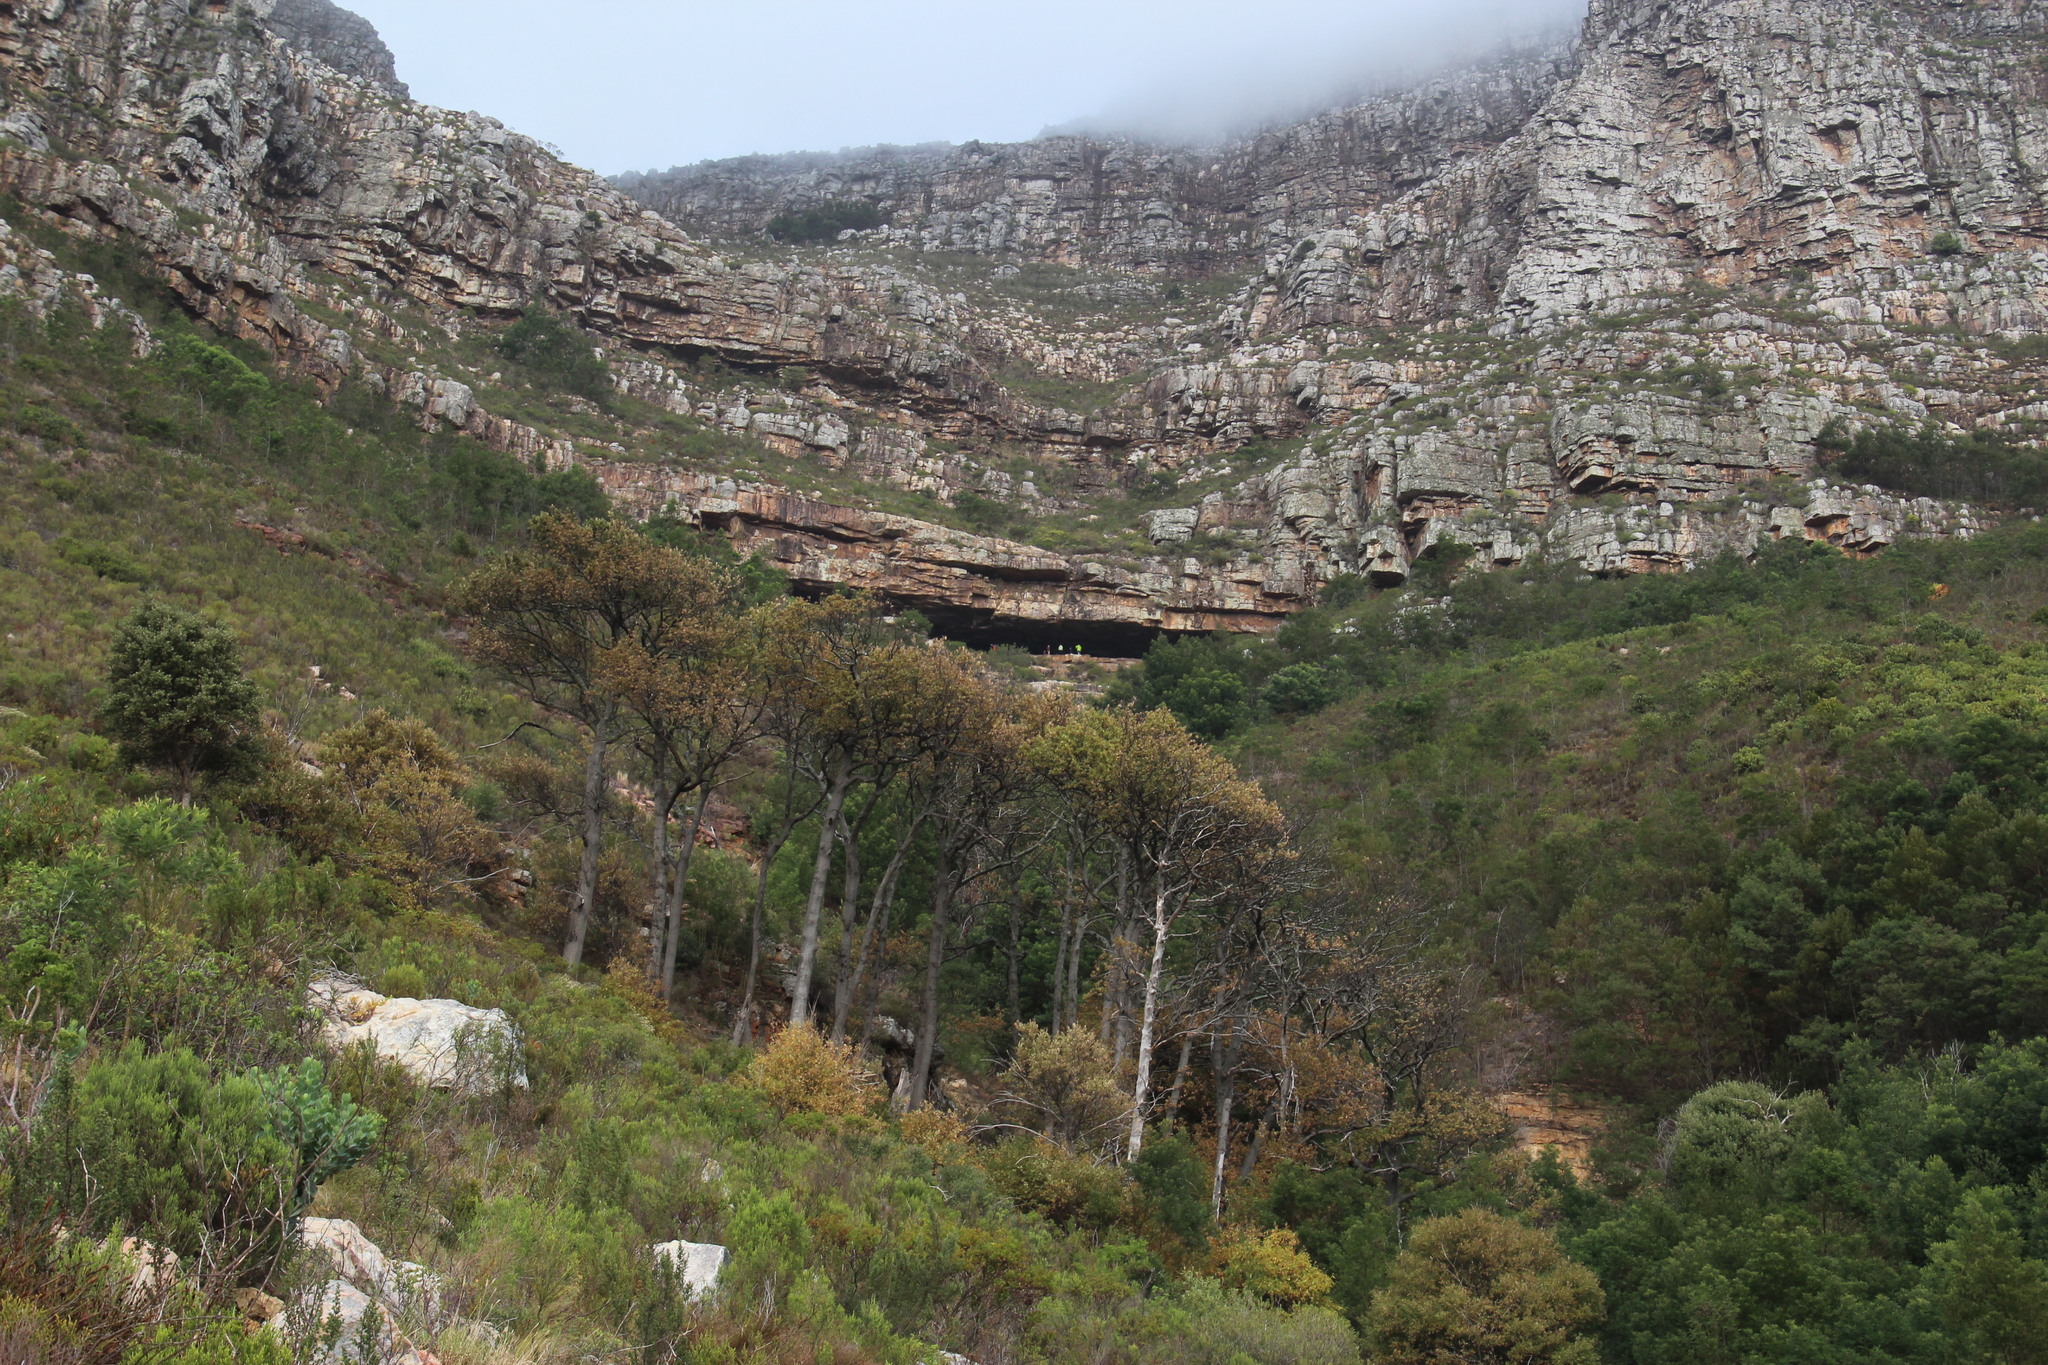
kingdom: Plantae
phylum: Tracheophyta
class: Magnoliopsida
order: Fabales
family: Fabaceae
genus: Acacia
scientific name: Acacia melanoxylon
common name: Blackwood
